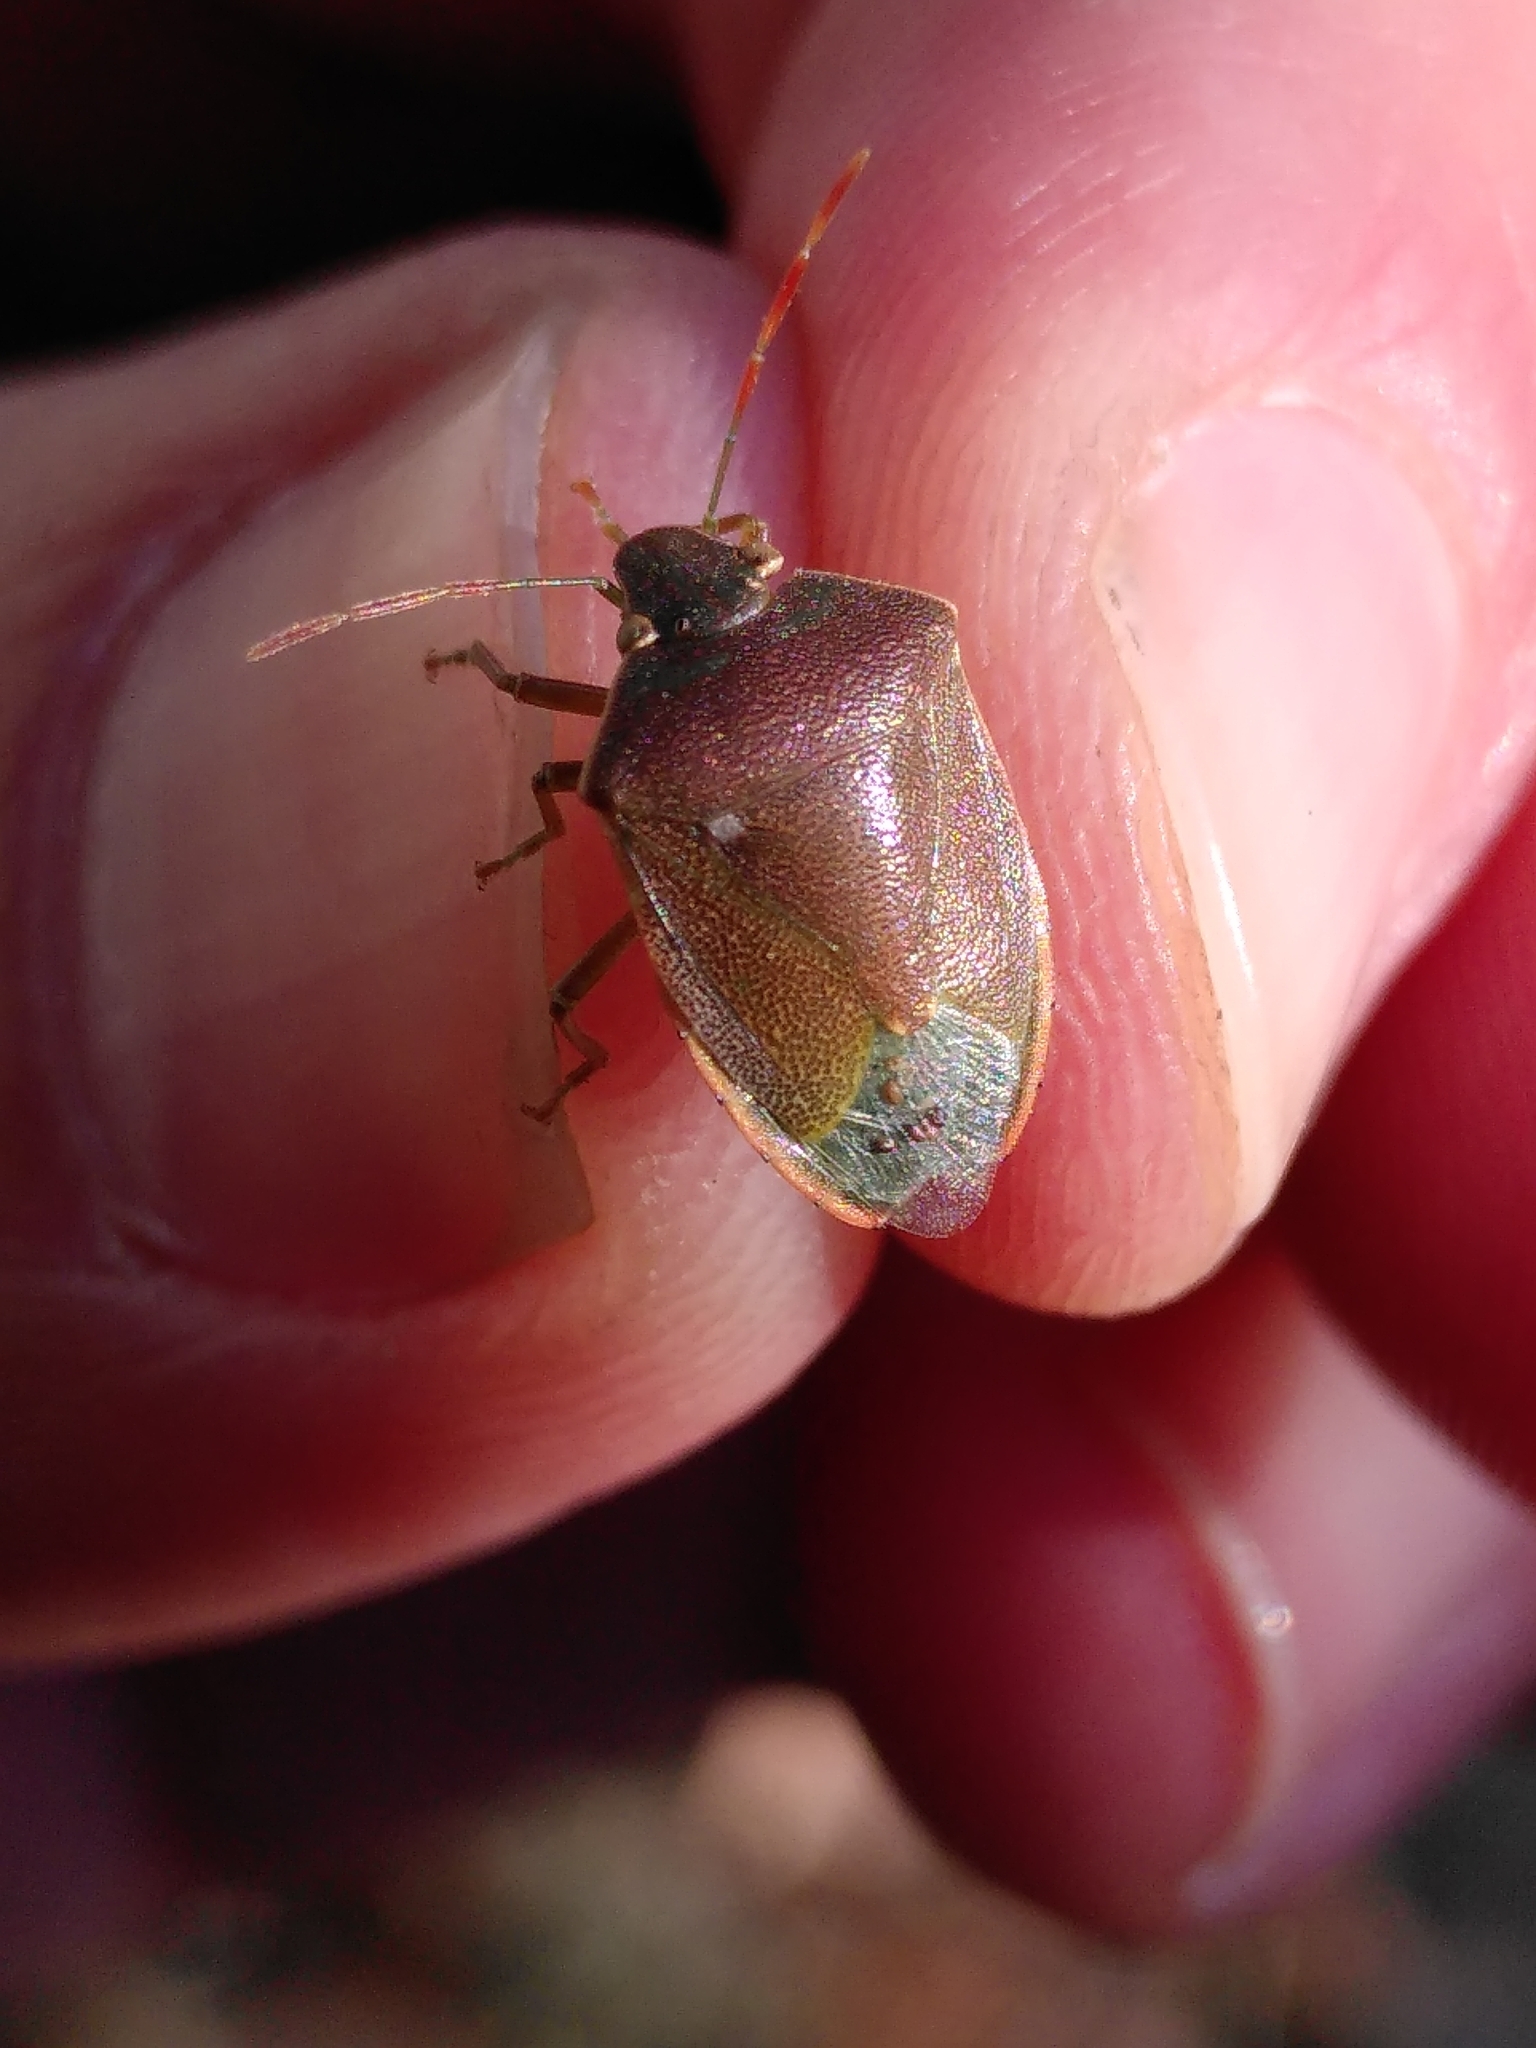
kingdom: Animalia
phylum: Arthropoda
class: Insecta
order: Hemiptera
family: Pentatomidae
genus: Acrosternum
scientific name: Acrosternum heegeri
